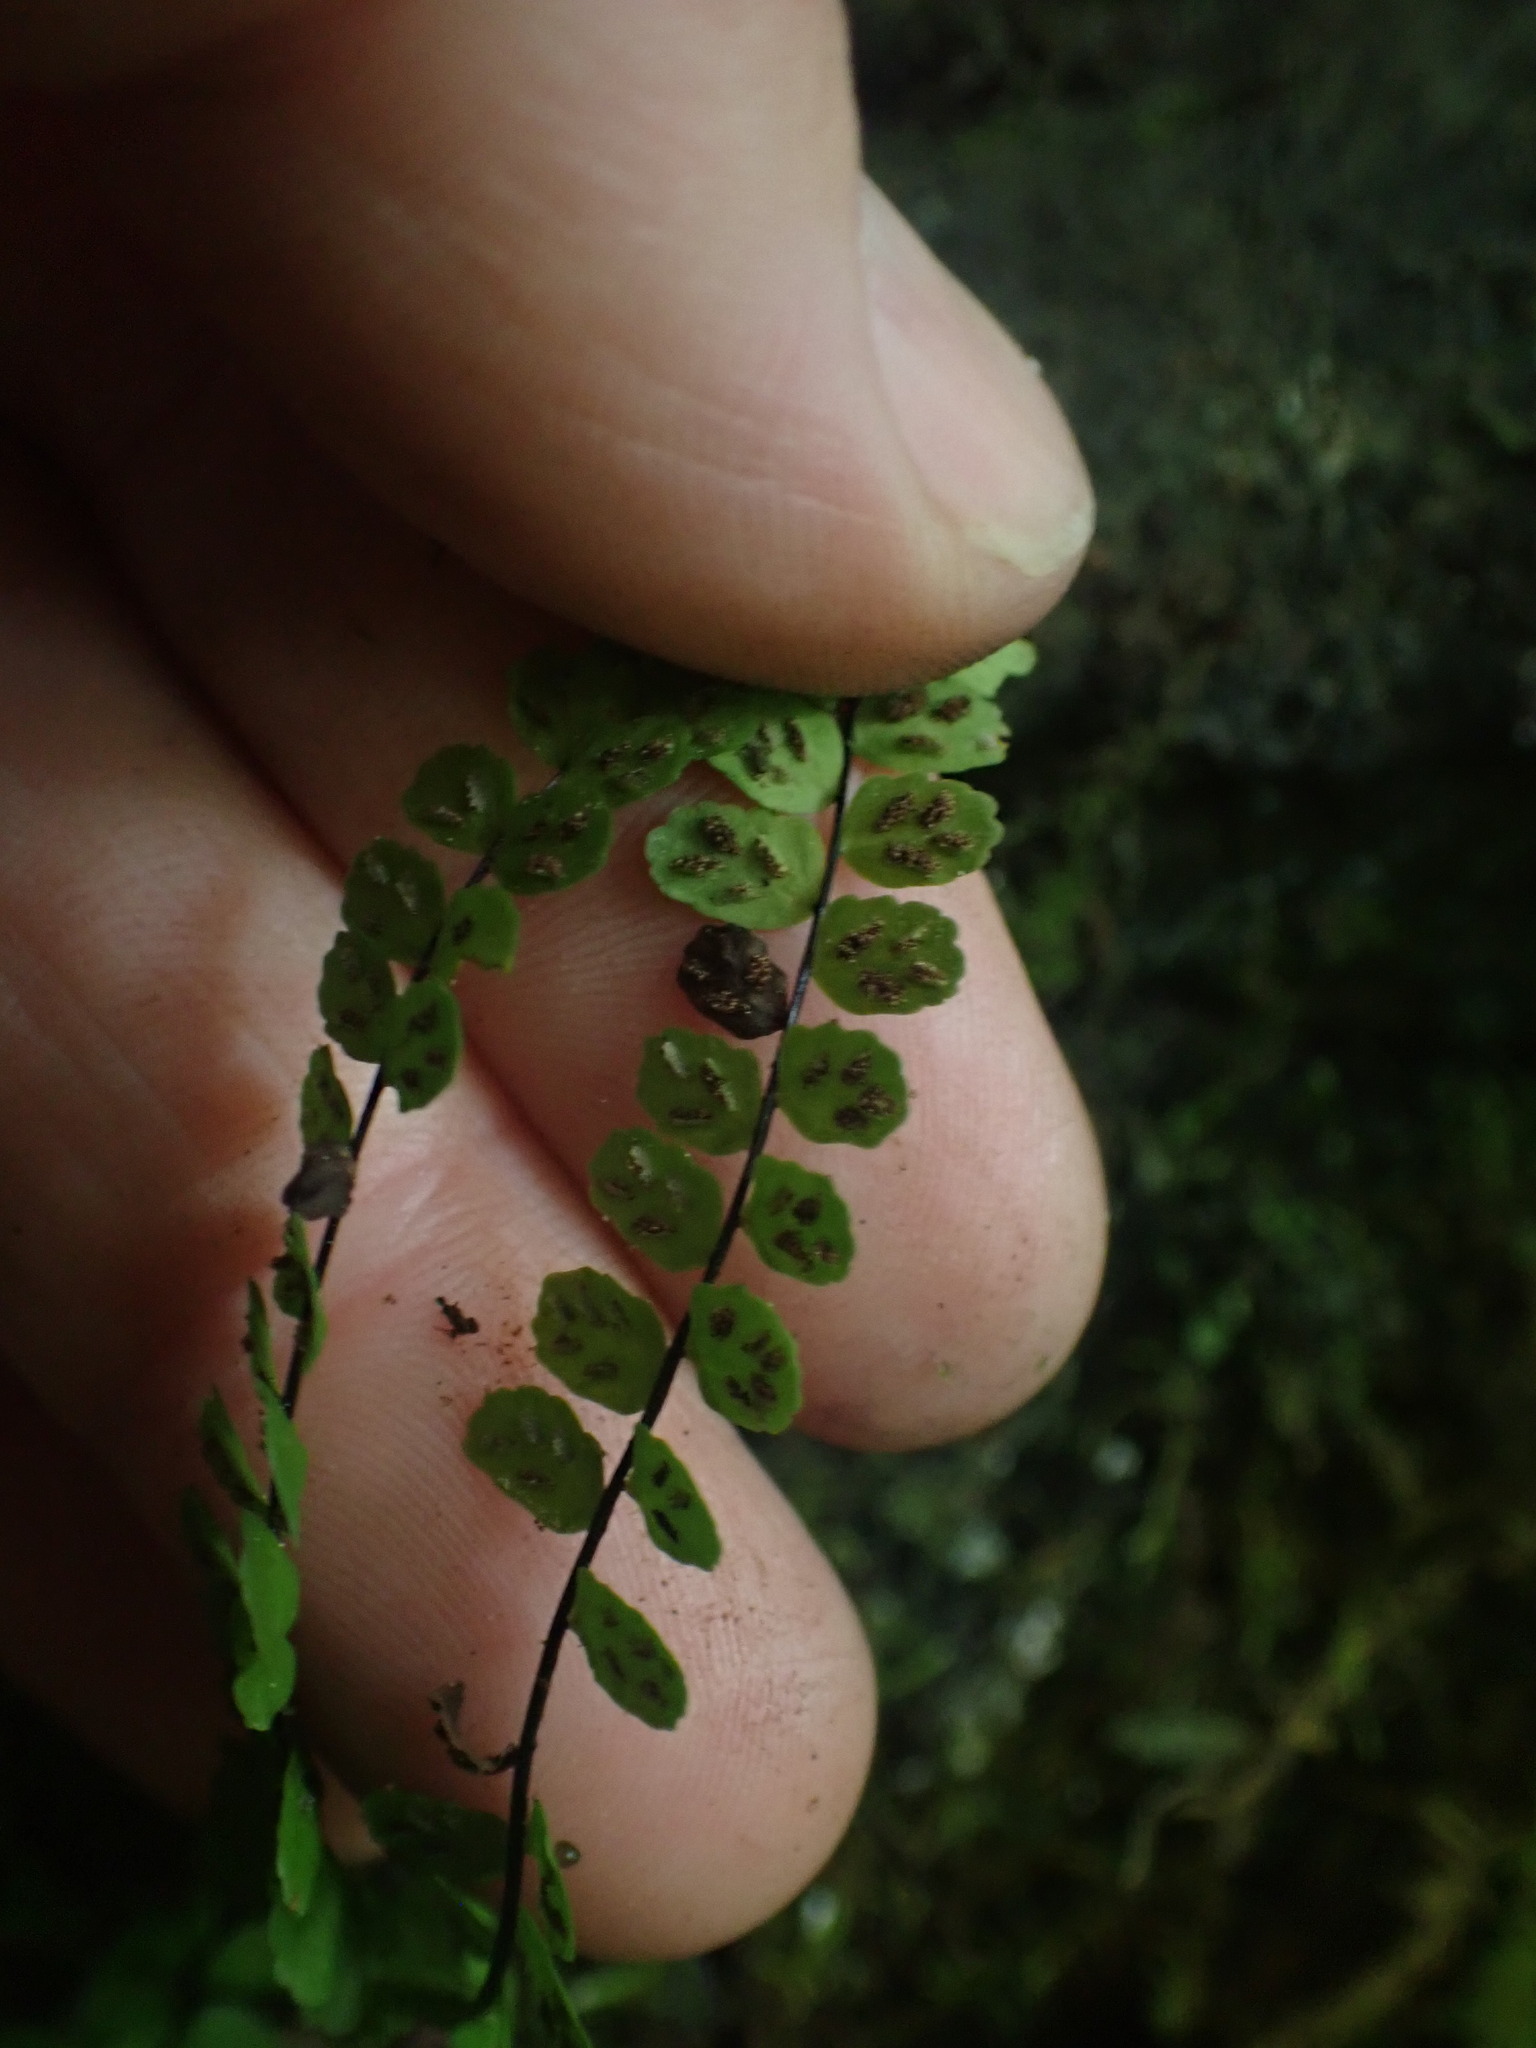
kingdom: Plantae
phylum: Tracheophyta
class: Polypodiopsida
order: Polypodiales
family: Aspleniaceae
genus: Asplenium
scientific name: Asplenium trichomanes
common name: Maidenhair spleenwort
